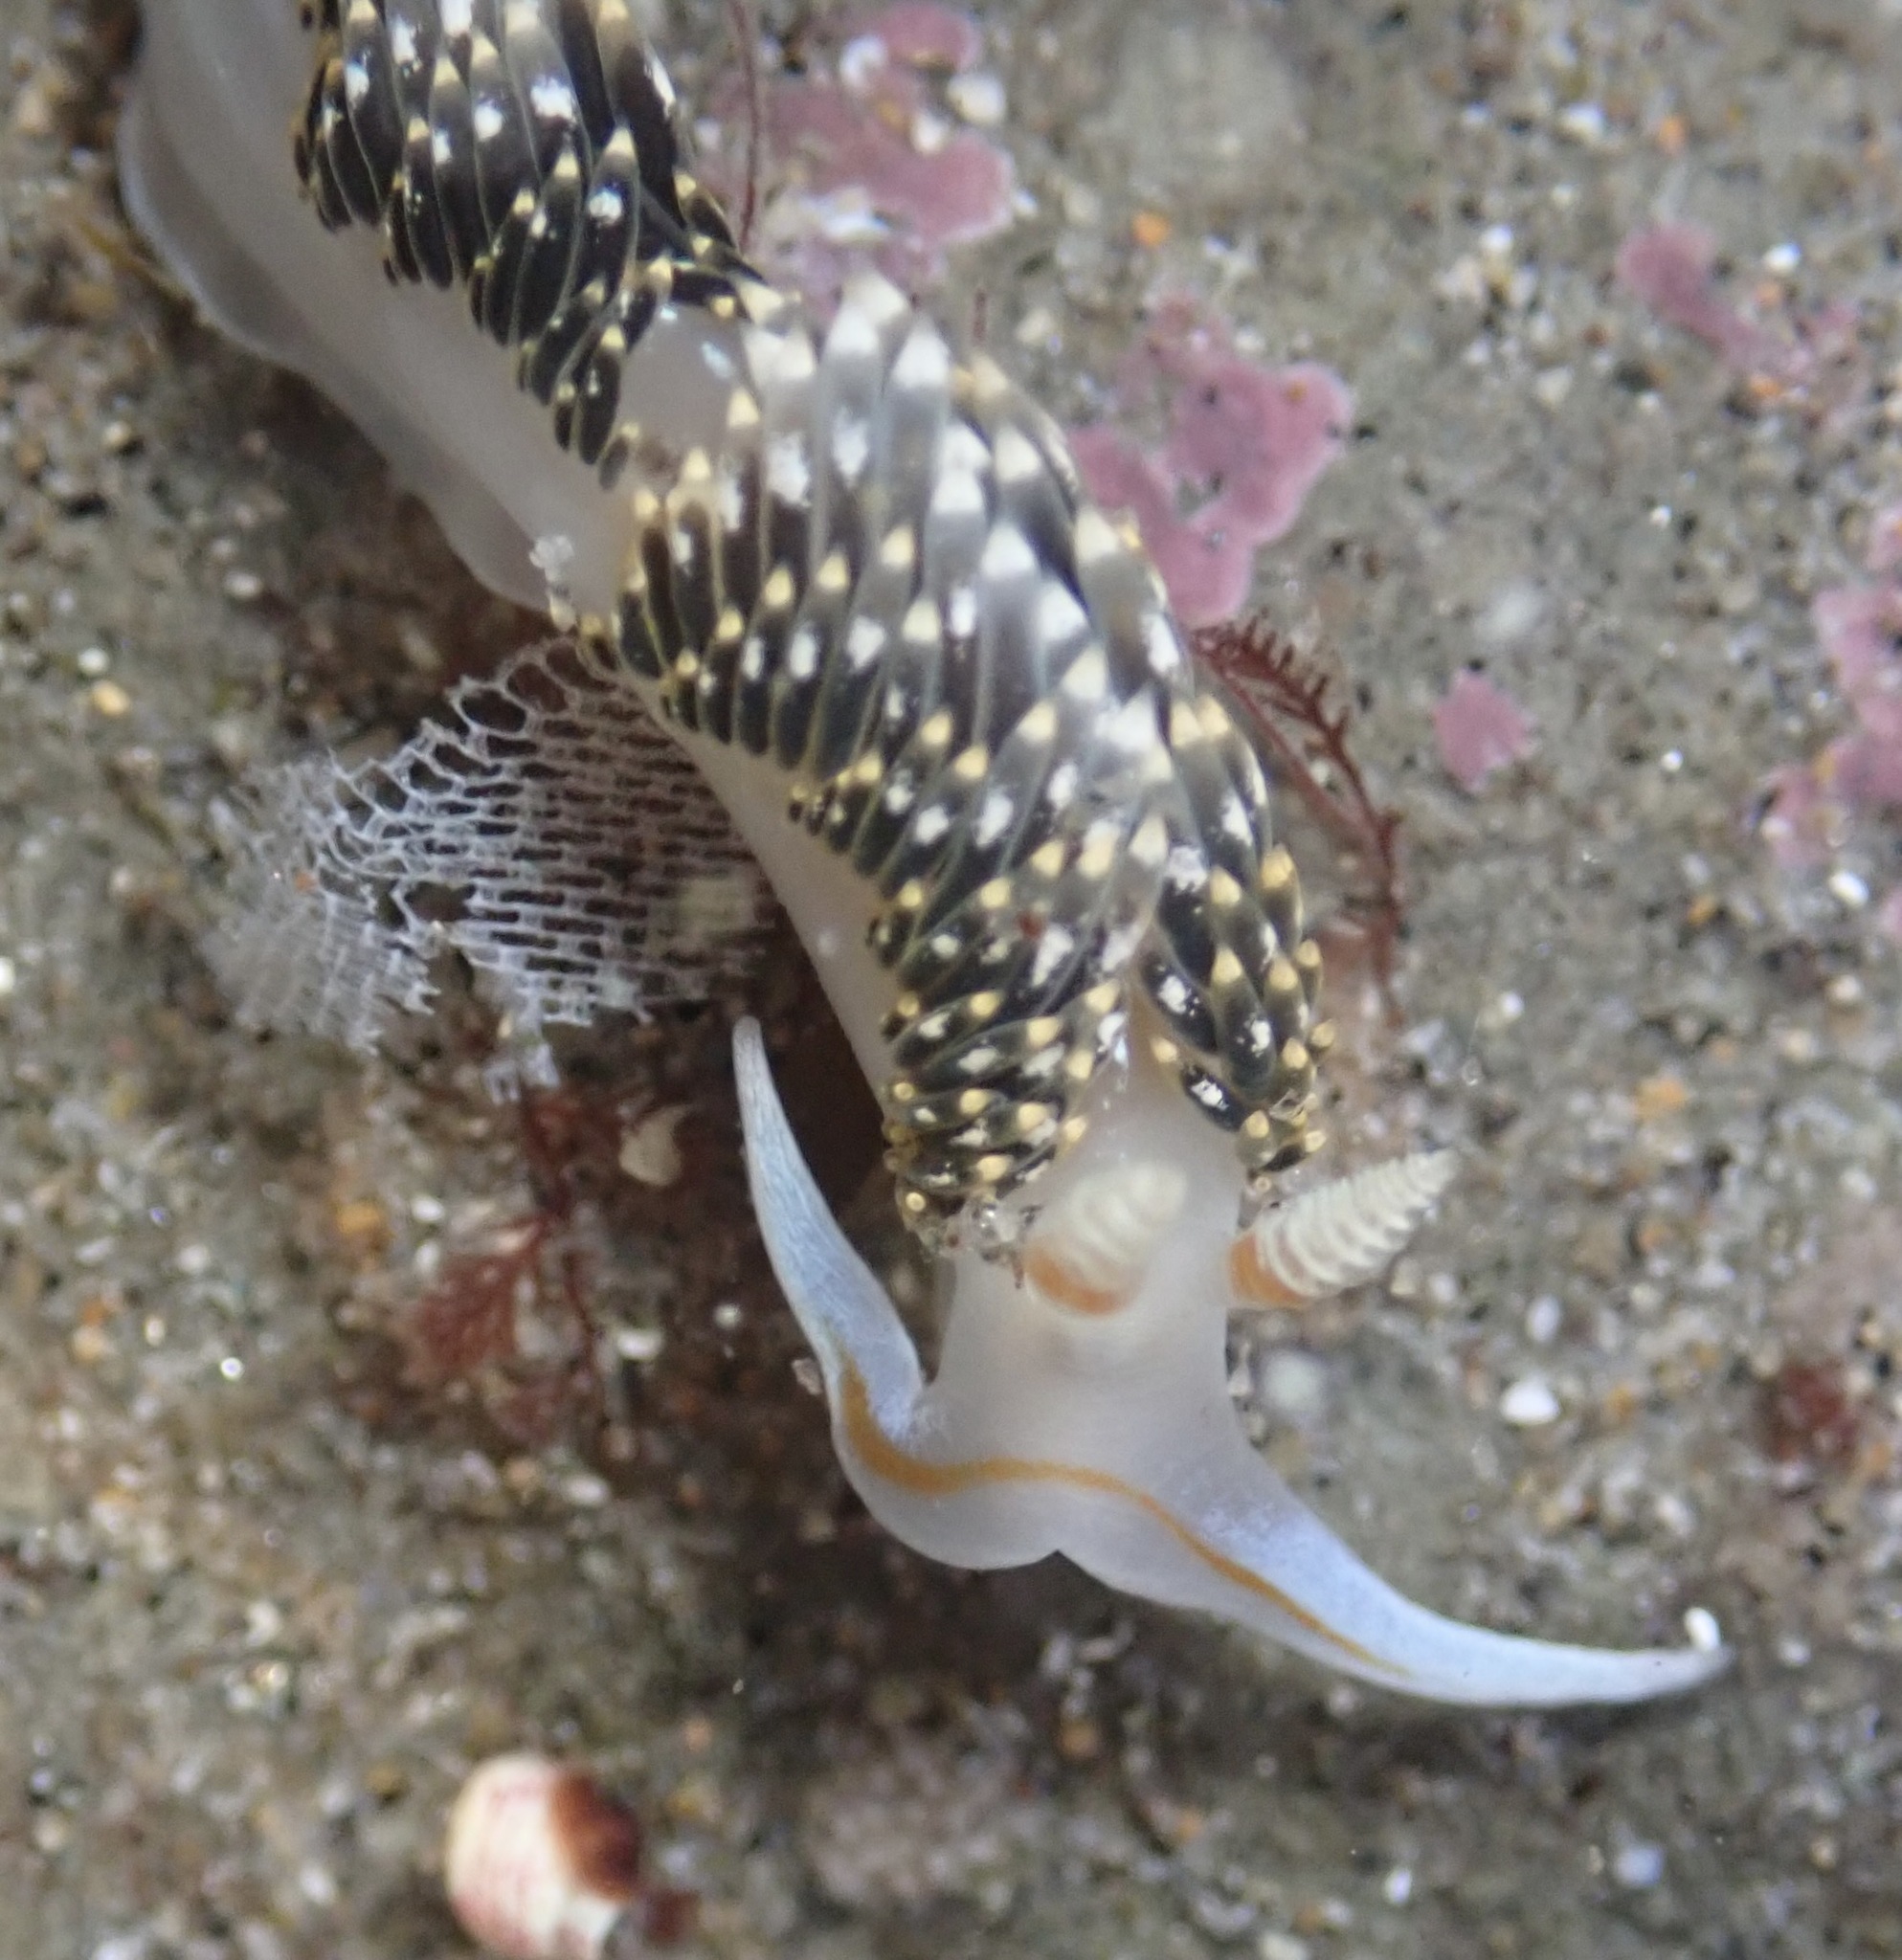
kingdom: Animalia
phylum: Mollusca
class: Gastropoda
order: Nudibranchia
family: Facelinidae
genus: Phidiana
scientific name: Phidiana hiltoni
